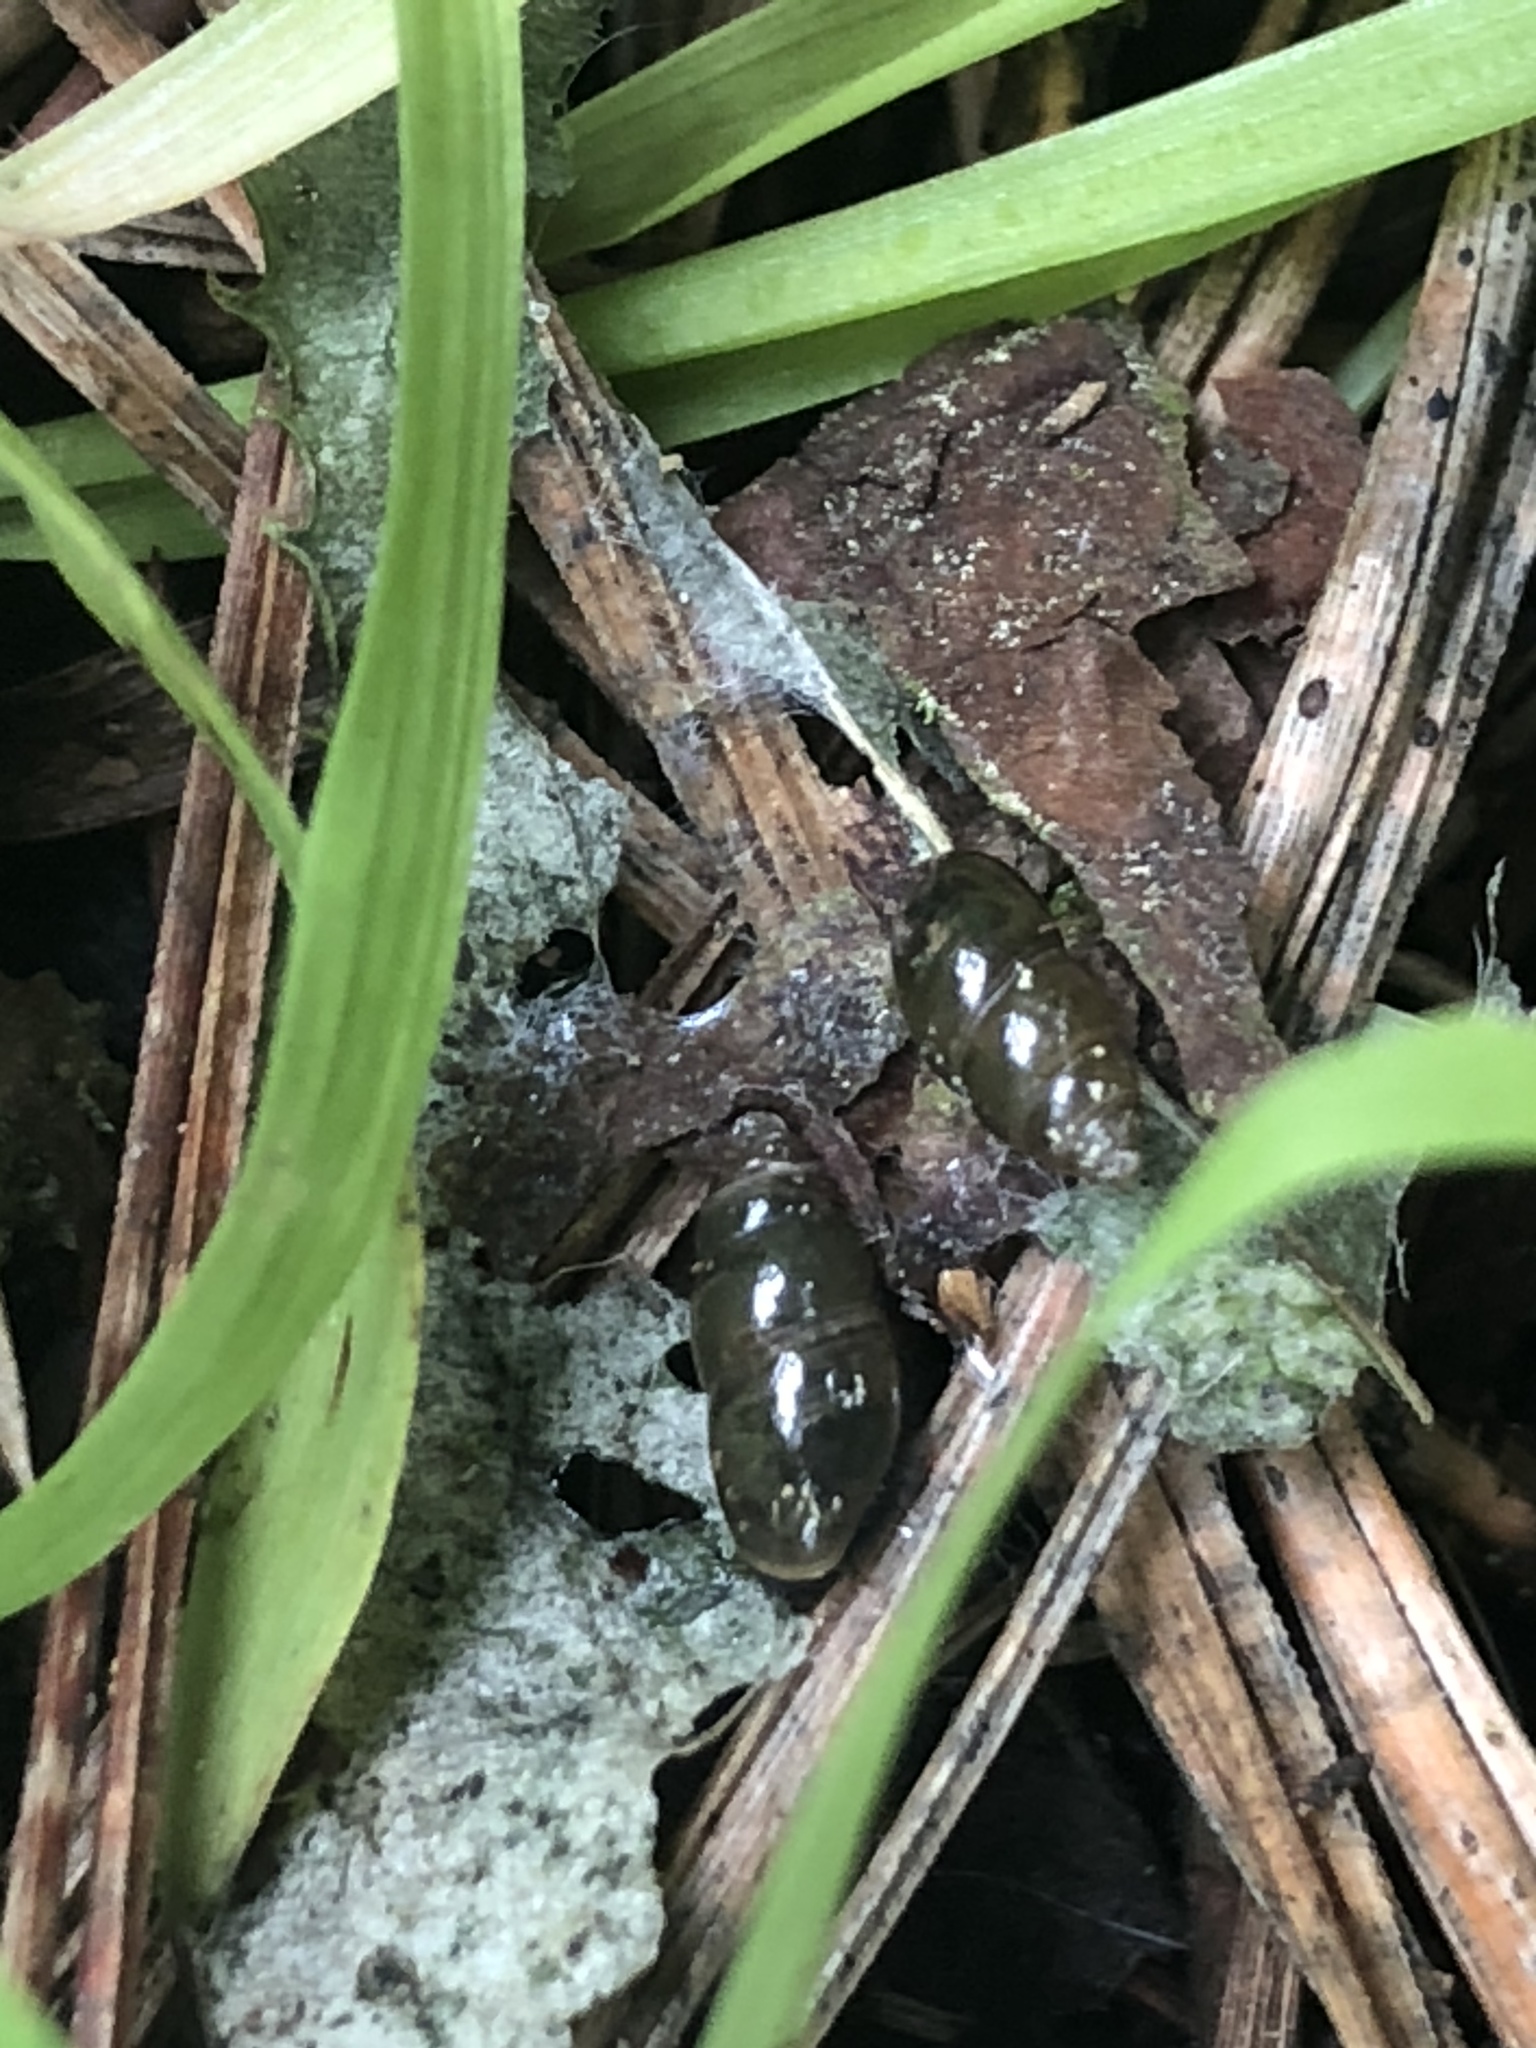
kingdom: Animalia
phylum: Mollusca
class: Gastropoda
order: Stylommatophora
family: Cochlicopidae
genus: Cochlicopa
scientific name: Cochlicopa lubrica
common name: Glossy pillar snail
